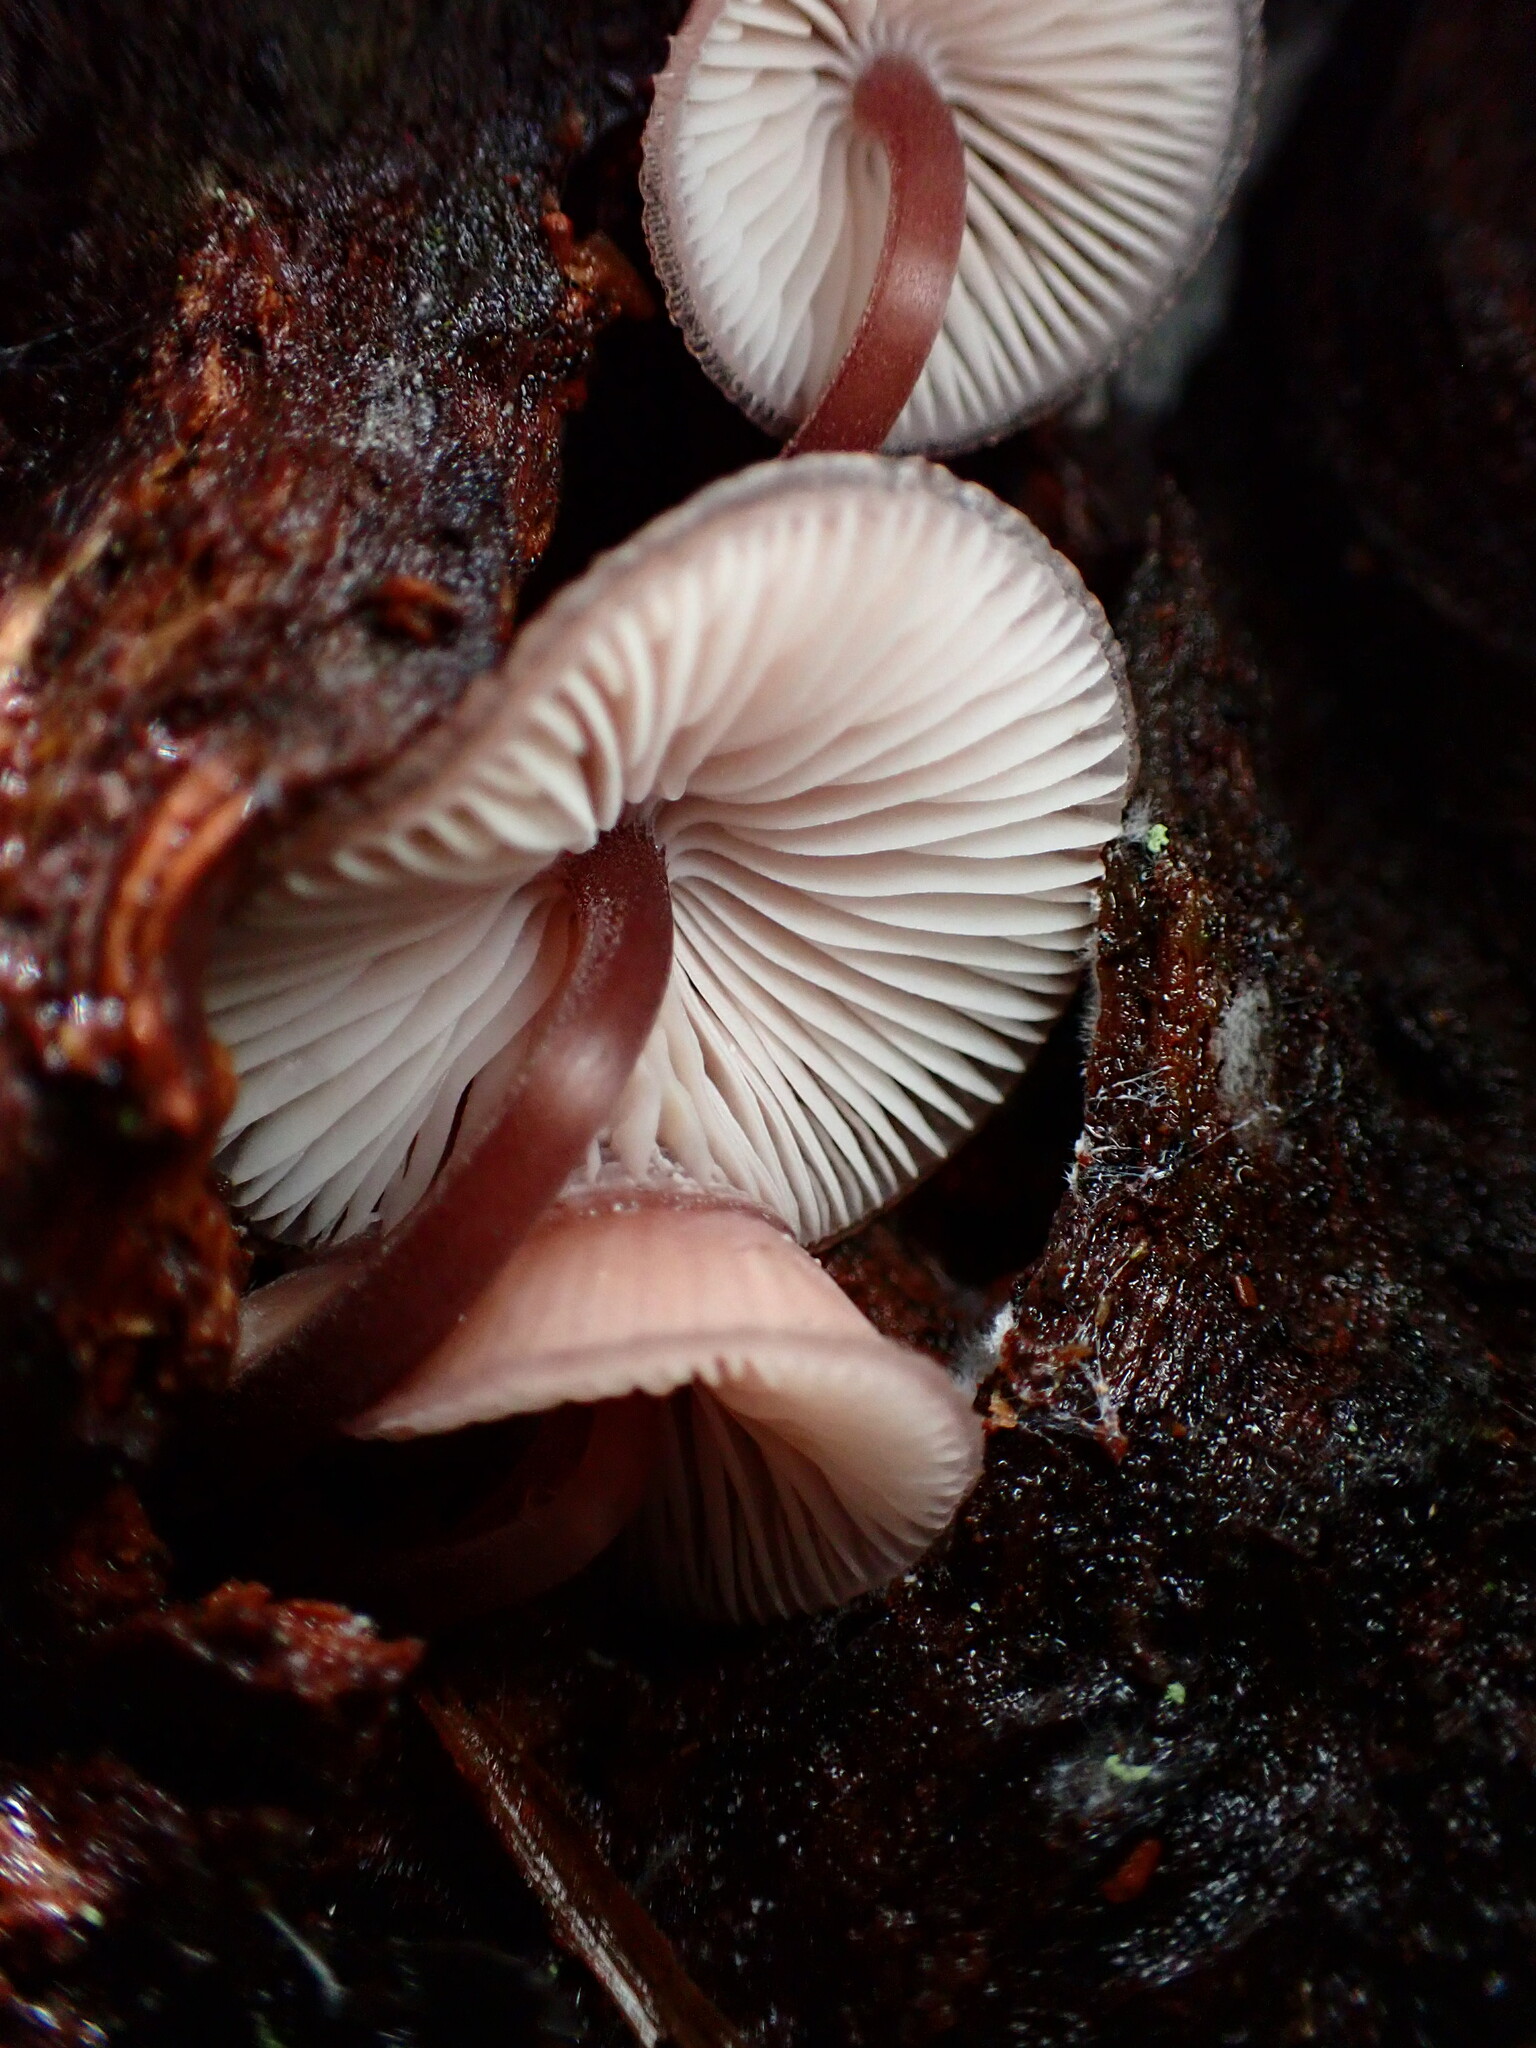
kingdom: Fungi
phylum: Basidiomycota
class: Agaricomycetes
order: Agaricales
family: Mycenaceae
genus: Mycena
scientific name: Mycena haematopus
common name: Burgundydrop bonnet
